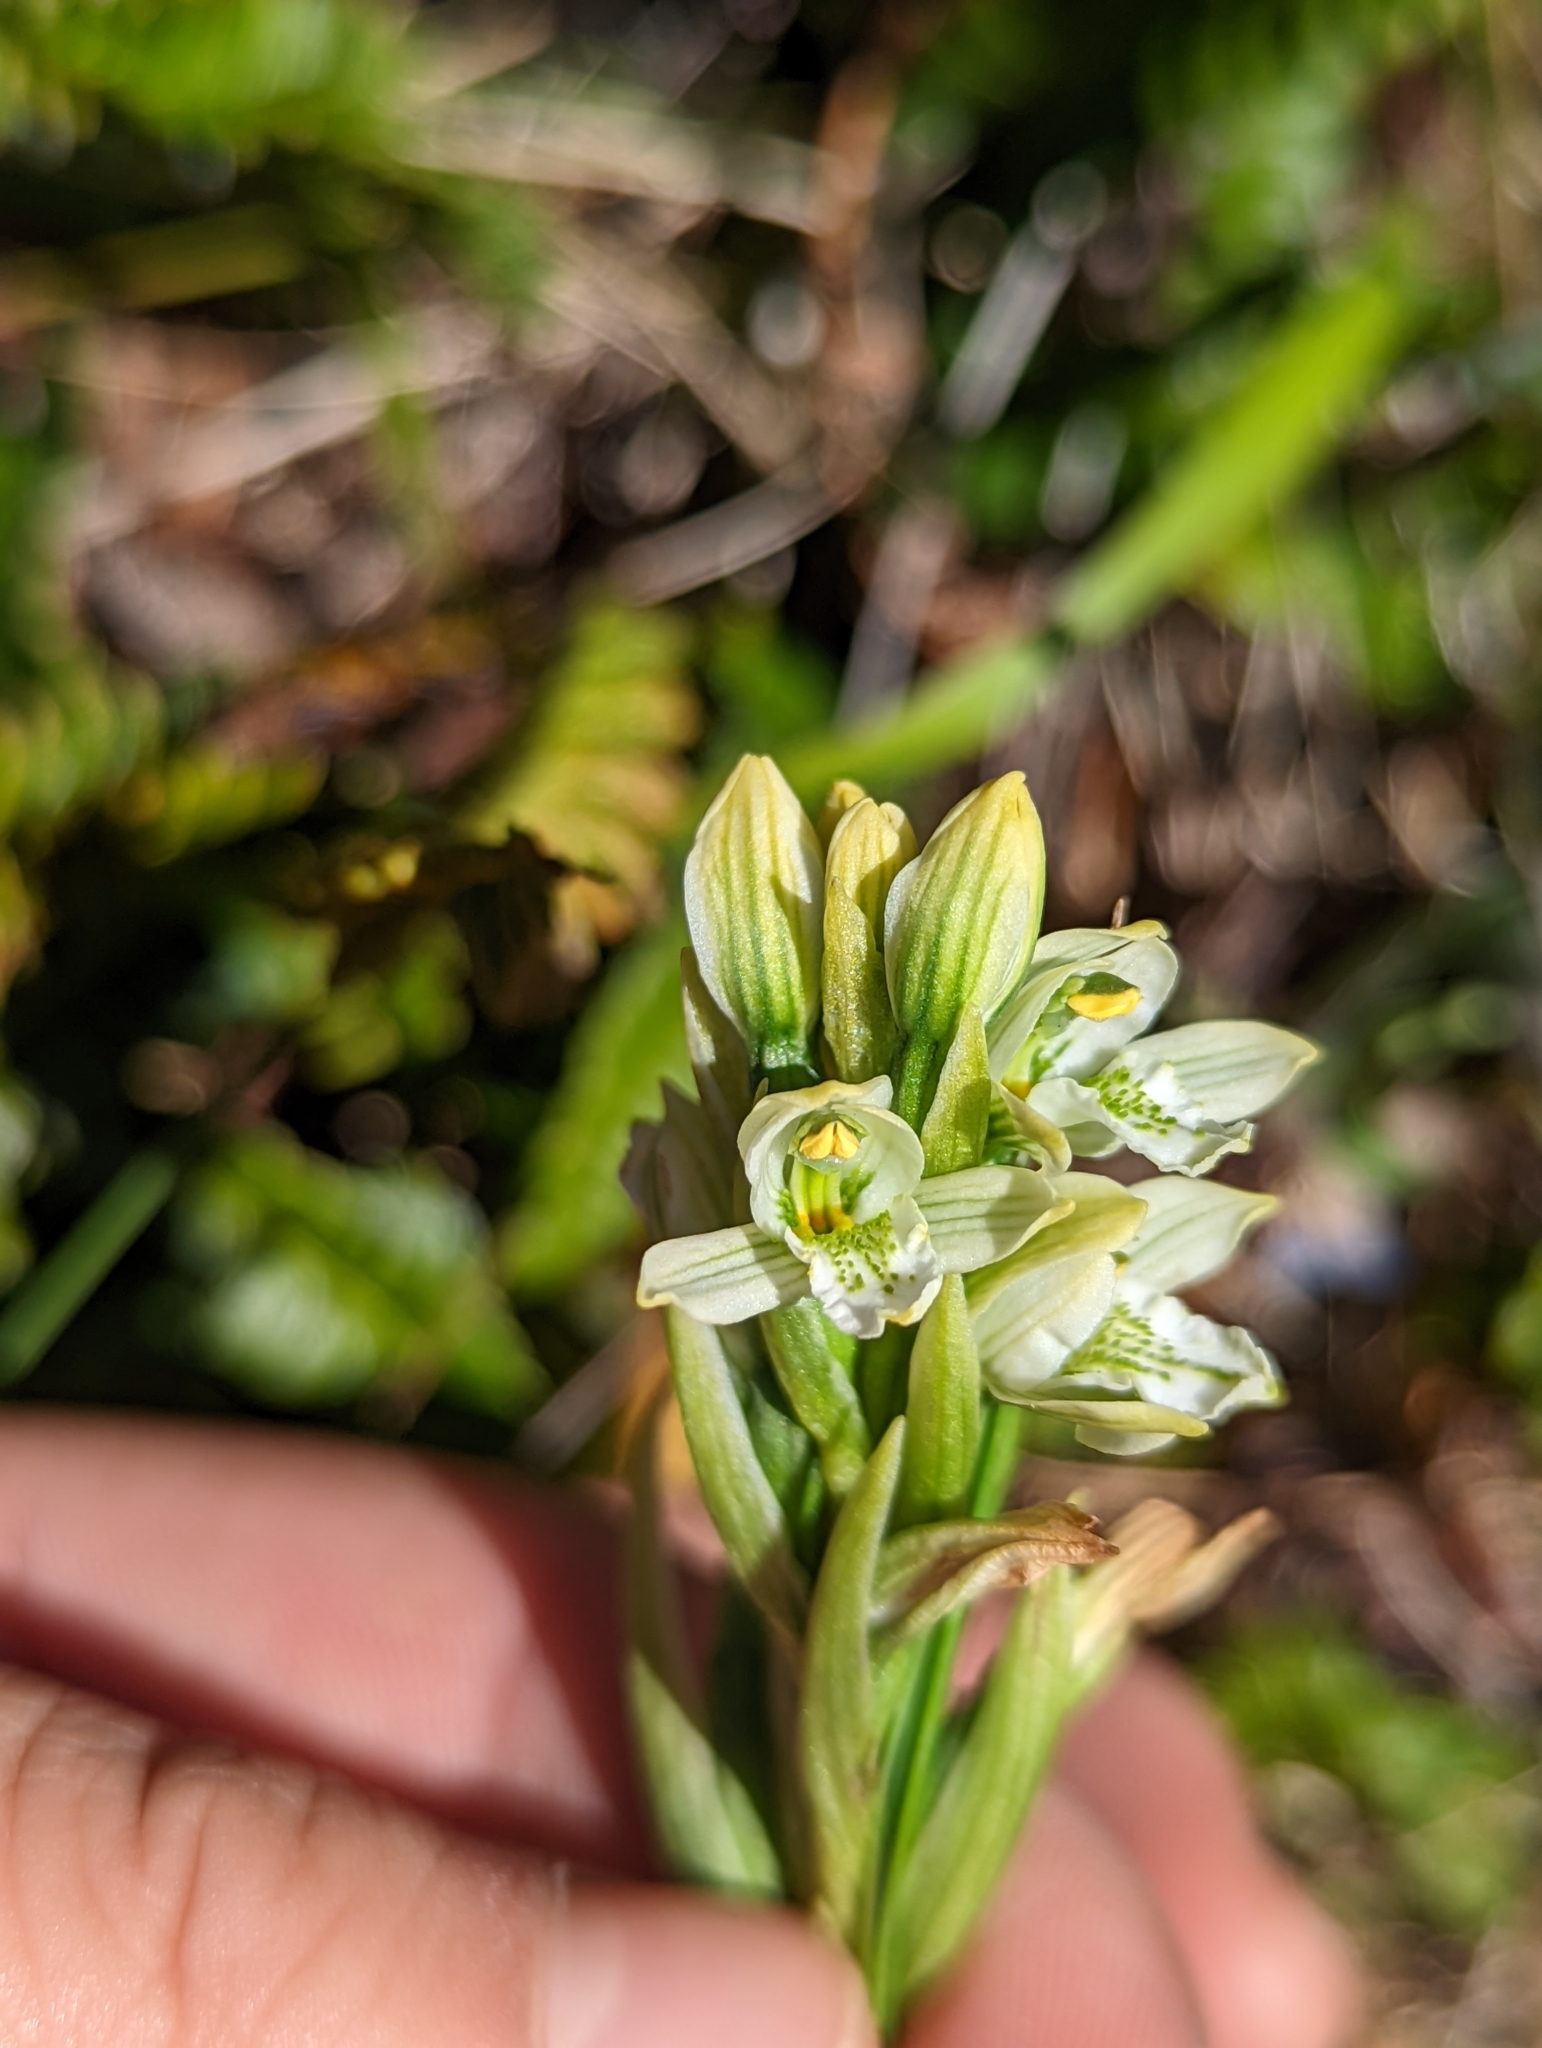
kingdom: Plantae
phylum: Tracheophyta
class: Liliopsida
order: Asparagales
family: Orchidaceae
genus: Gavilea
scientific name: Gavilea chica
